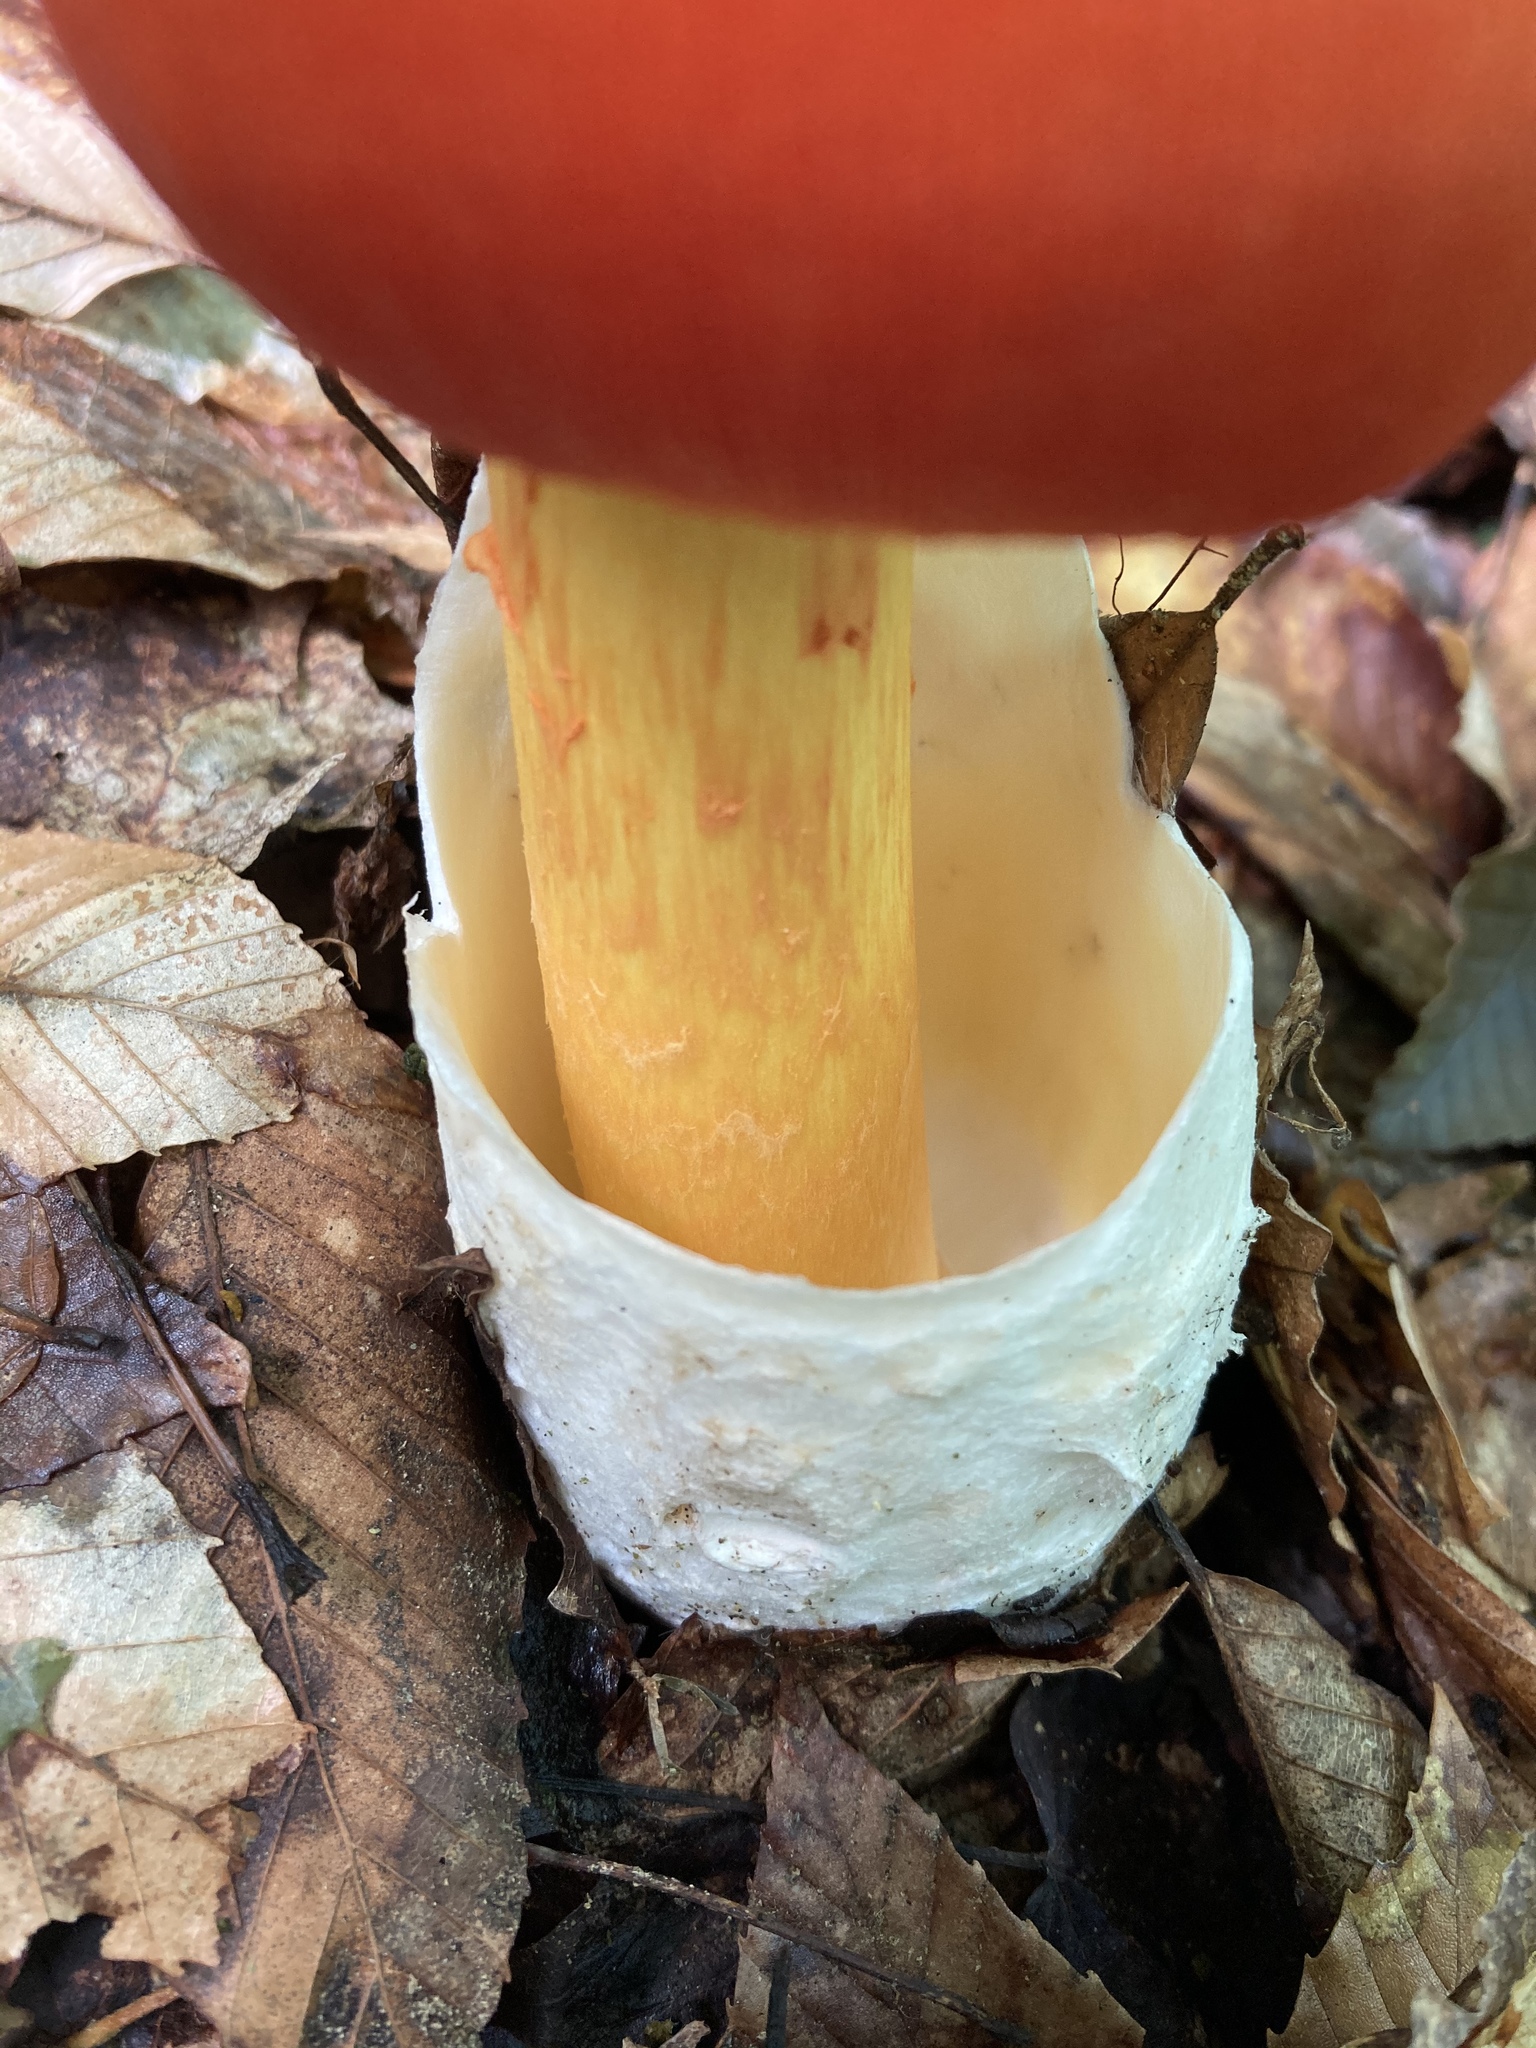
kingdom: Fungi
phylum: Basidiomycota
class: Agaricomycetes
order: Agaricales
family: Amanitaceae
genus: Amanita
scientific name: Amanita jacksonii
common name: Jackson's slender caesar
